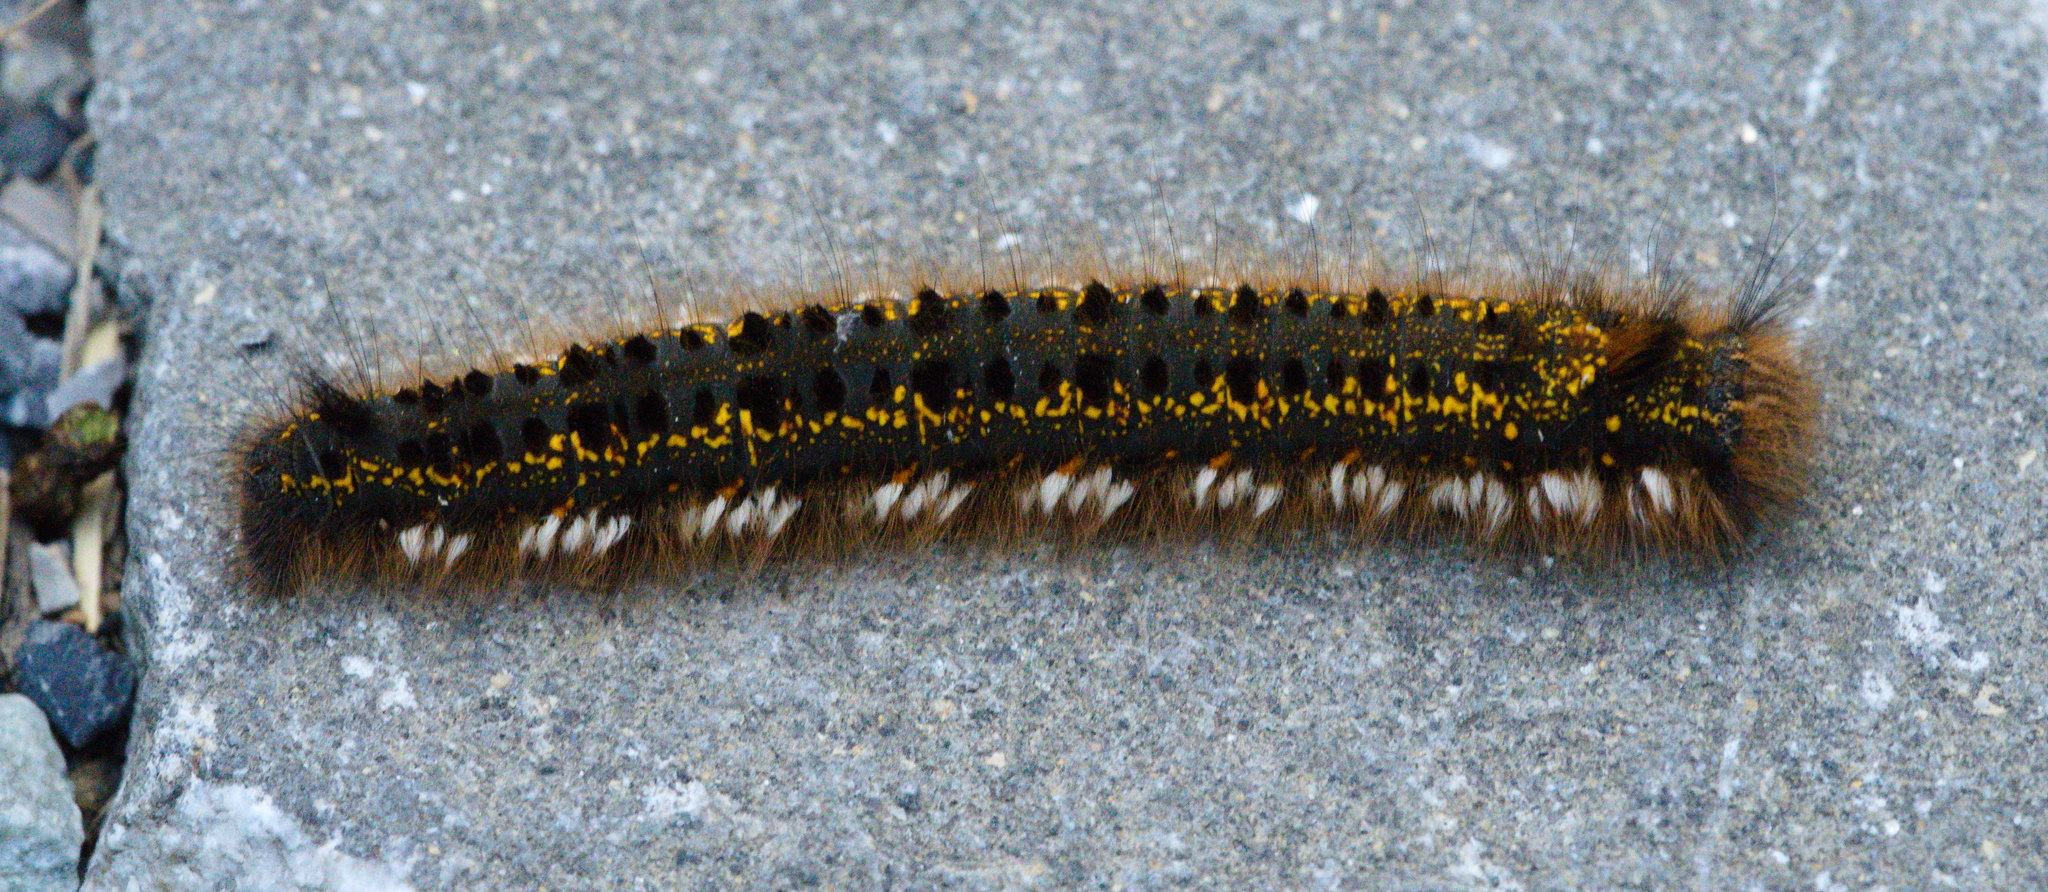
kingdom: Animalia
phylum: Arthropoda
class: Insecta
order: Lepidoptera
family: Lasiocampidae
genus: Euthrix
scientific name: Euthrix potatoria
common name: Drinker
